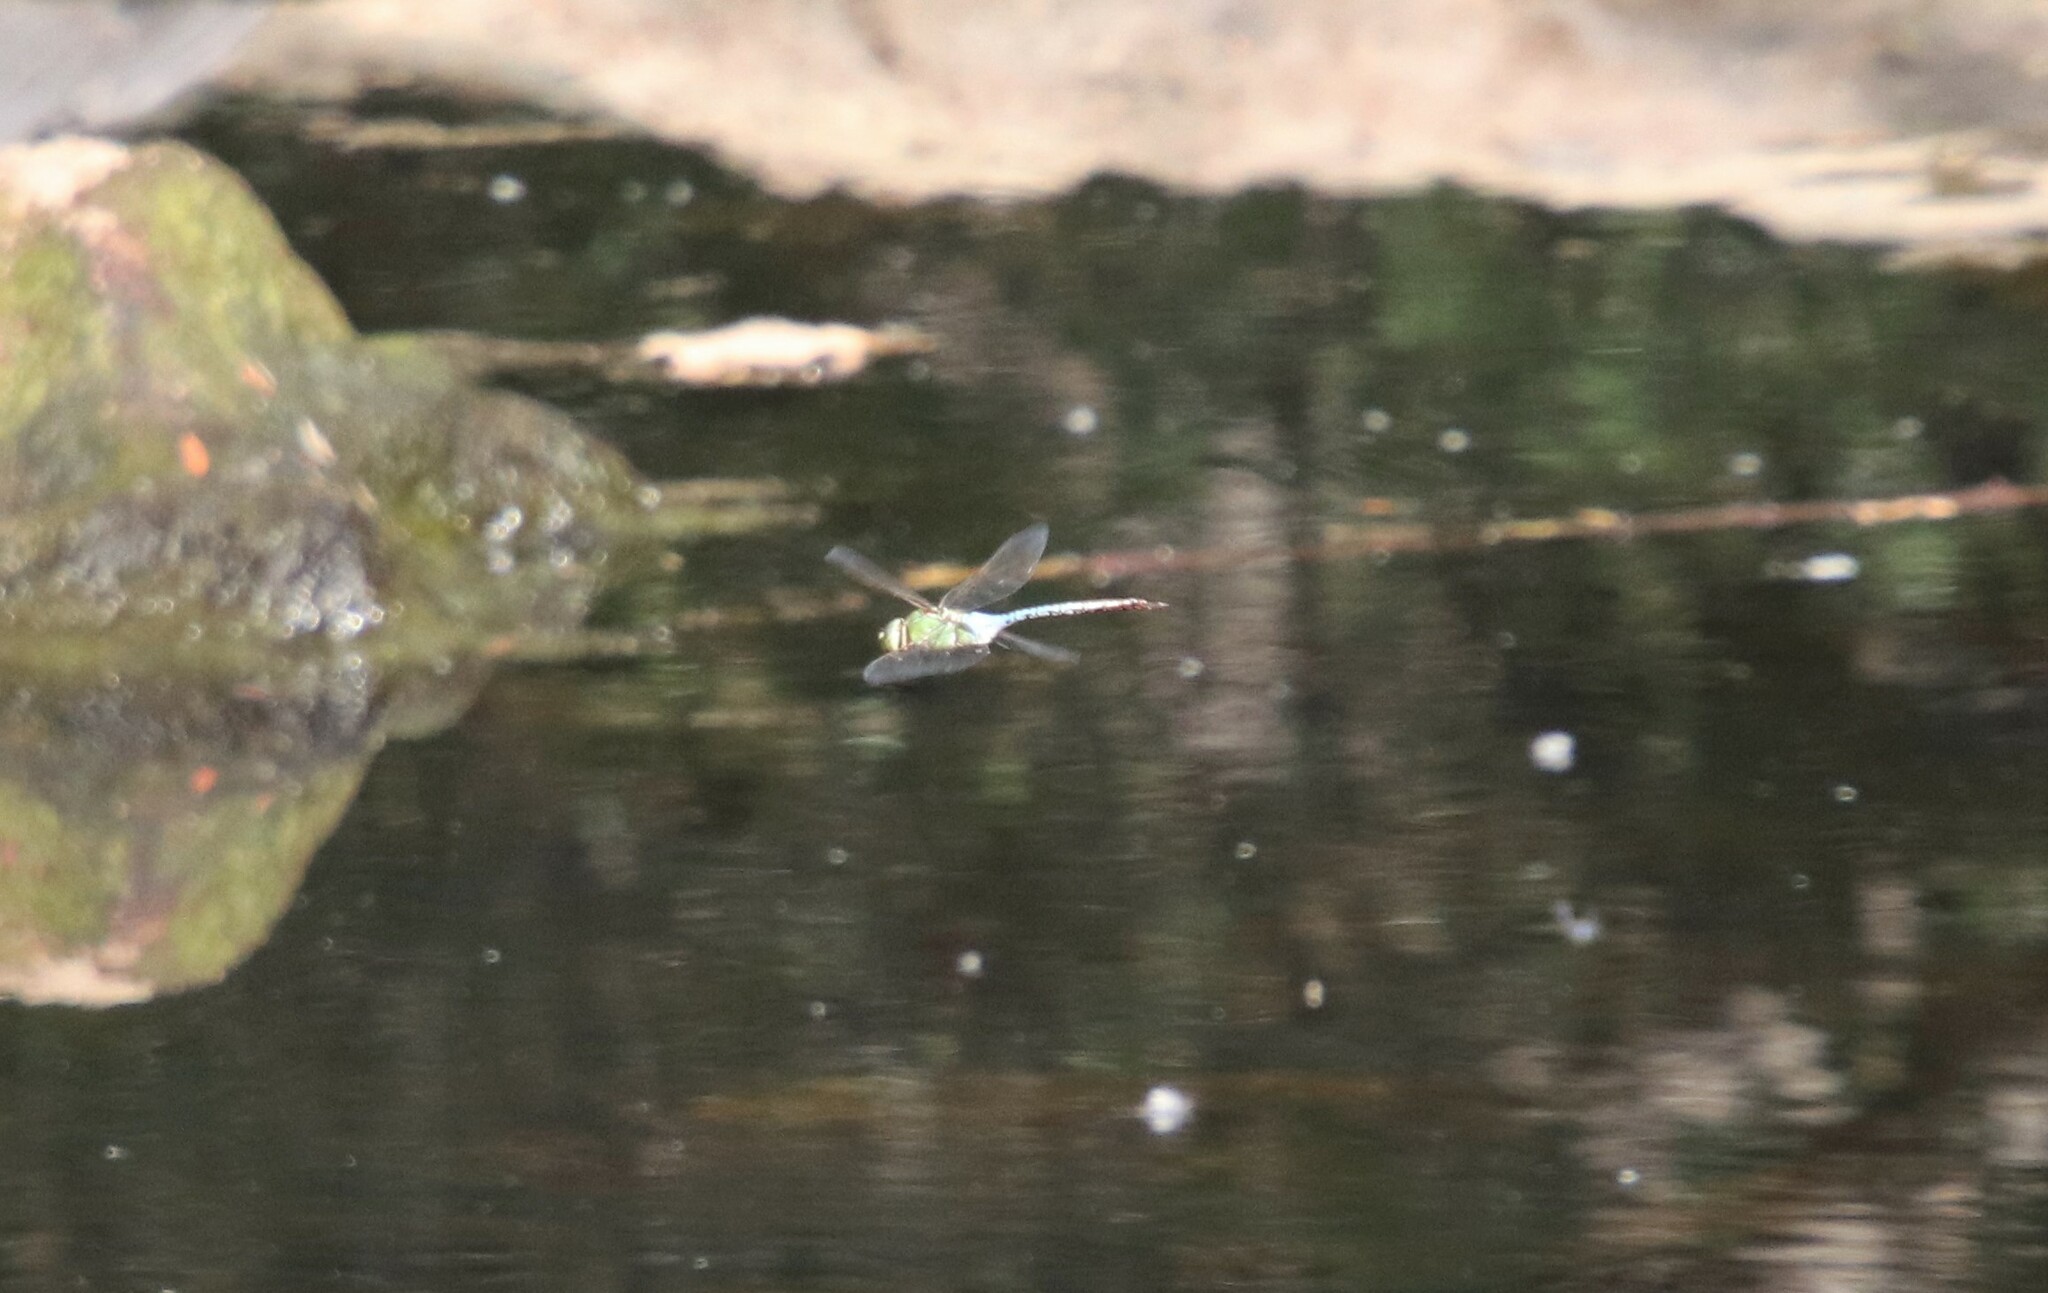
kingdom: Animalia
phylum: Arthropoda
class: Insecta
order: Odonata
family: Aeshnidae
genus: Anax
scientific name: Anax junius
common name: Common green darner
